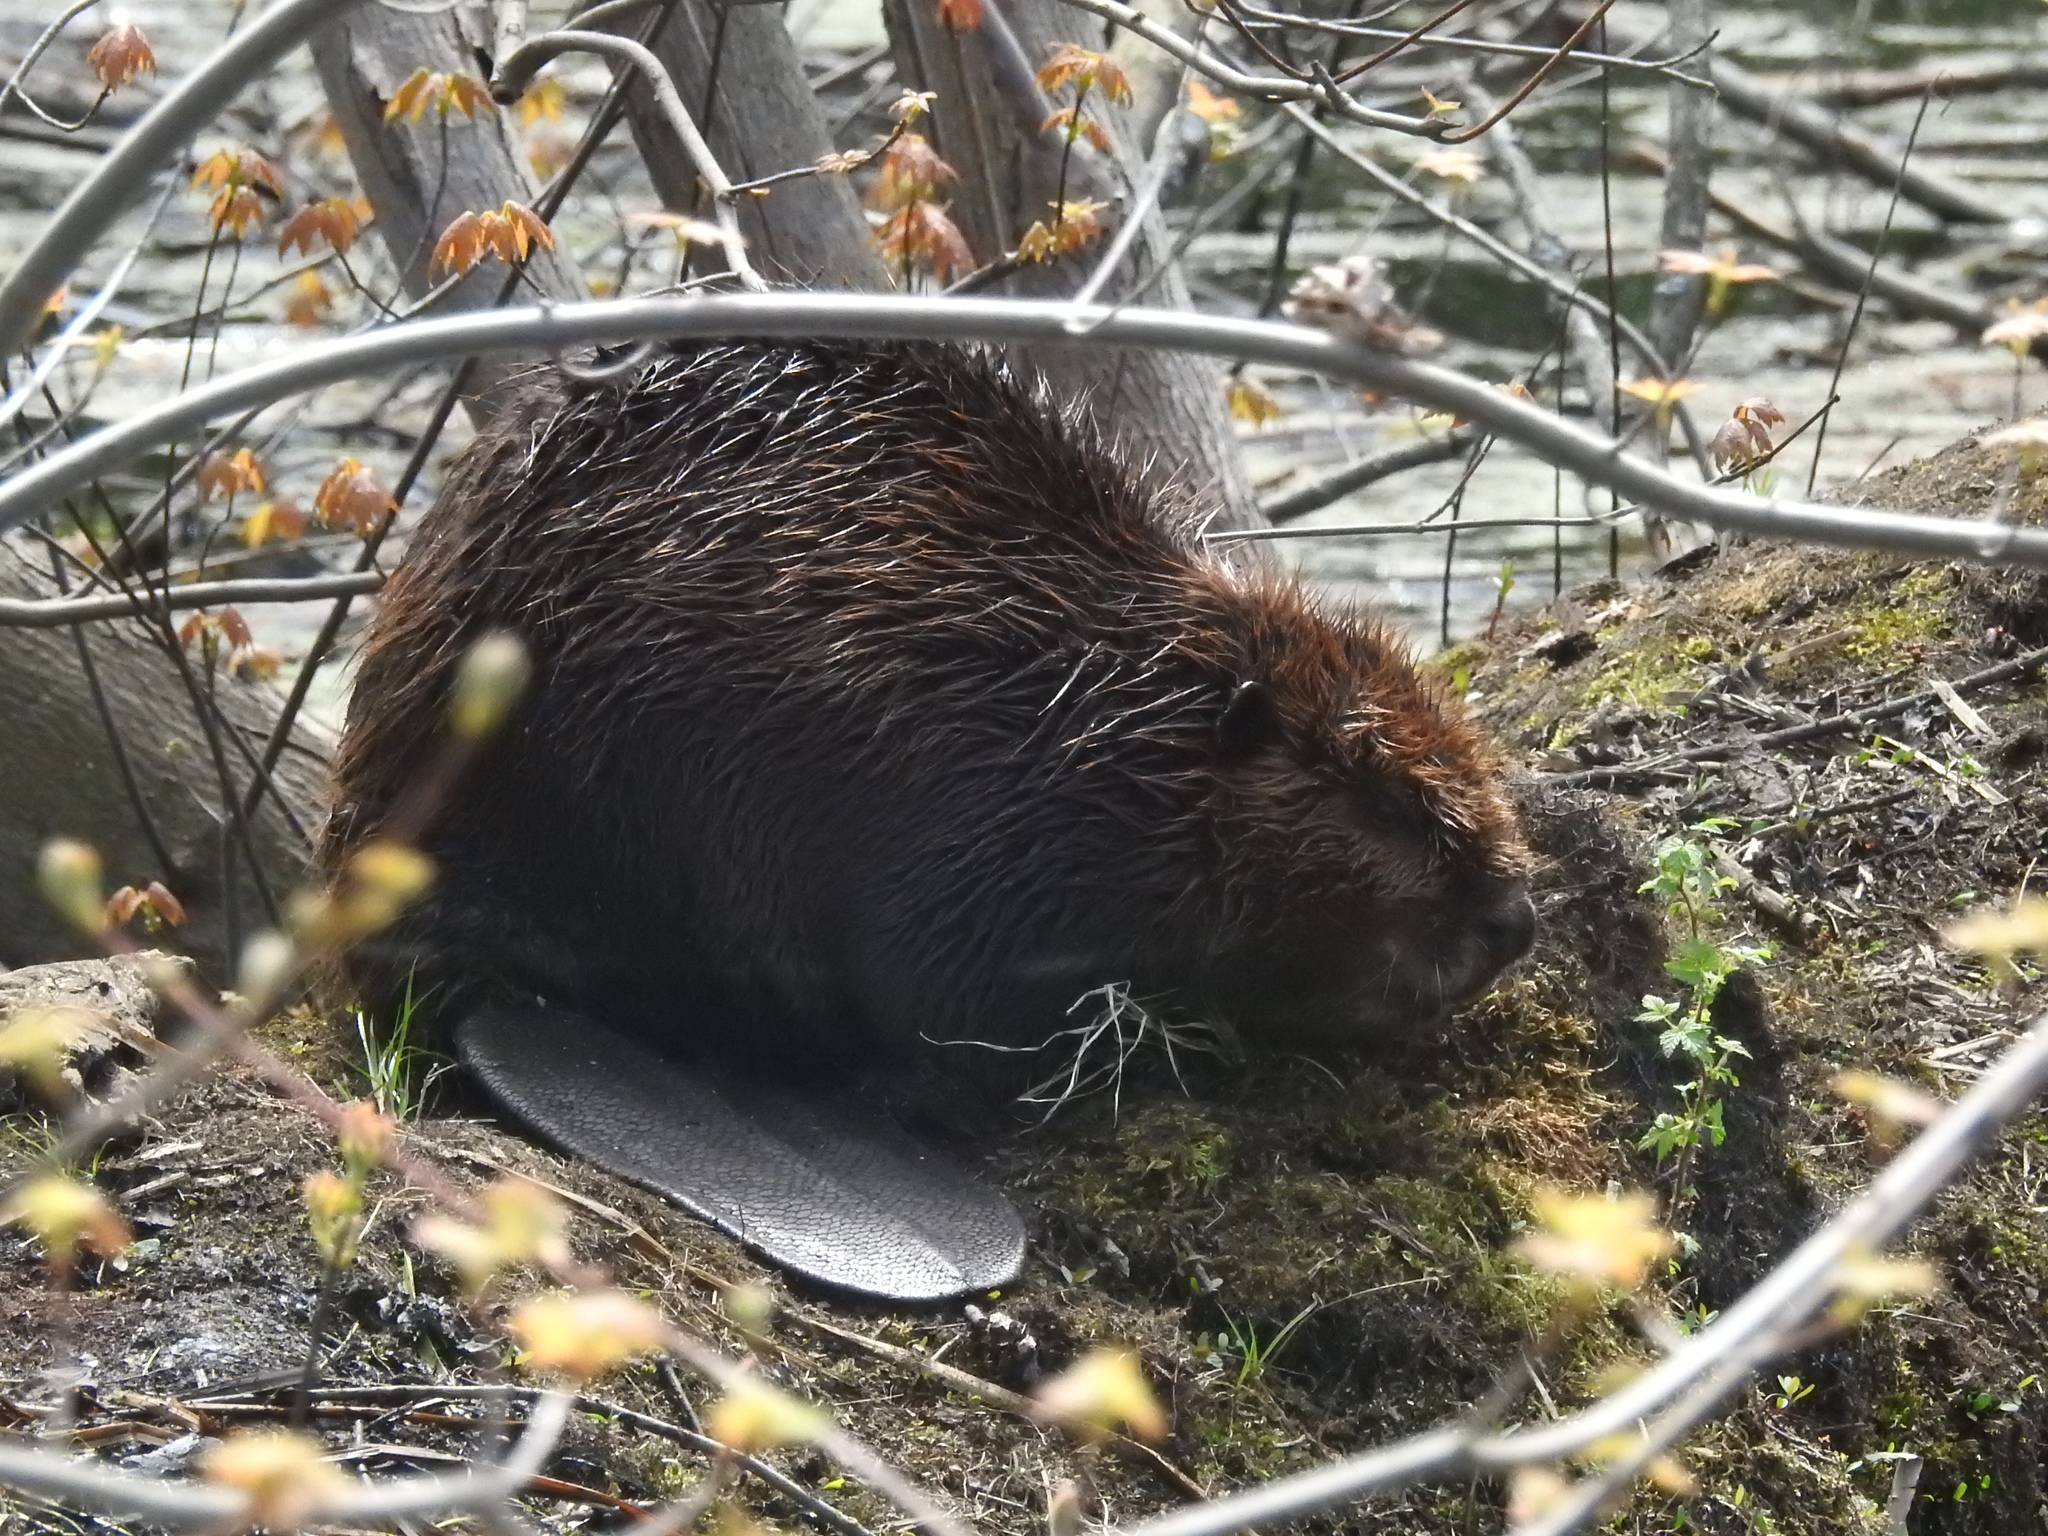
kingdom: Animalia
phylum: Chordata
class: Mammalia
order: Rodentia
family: Castoridae
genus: Castor
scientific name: Castor canadensis
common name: American beaver
